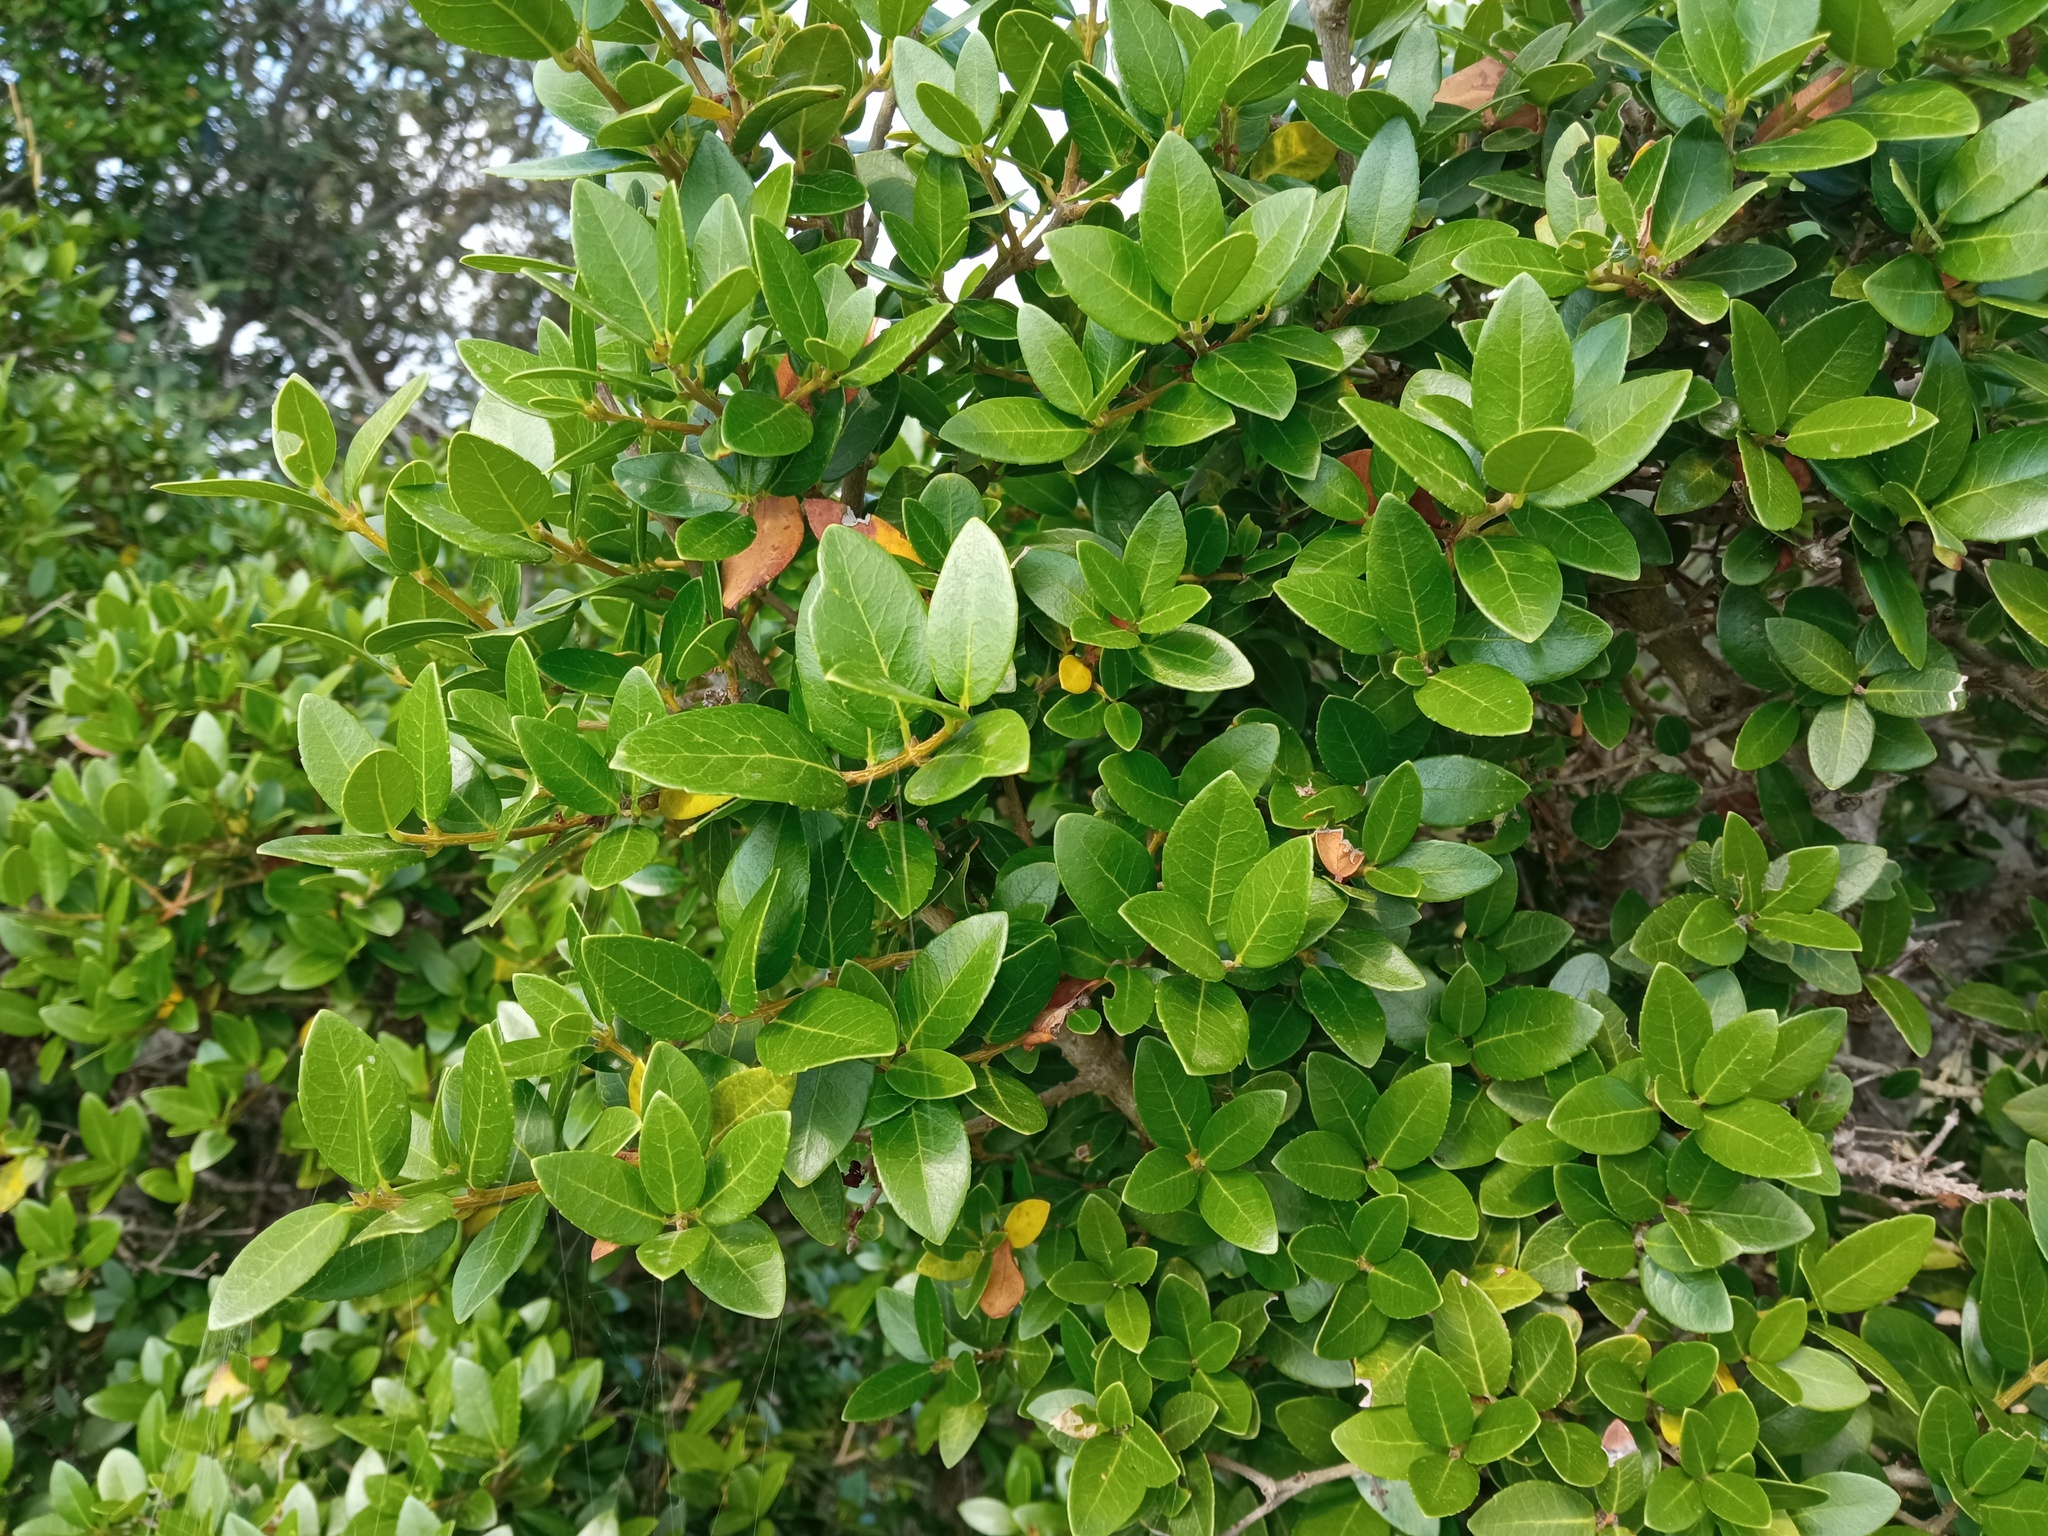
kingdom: Plantae
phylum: Tracheophyta
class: Magnoliopsida
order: Lamiales
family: Oleaceae
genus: Phillyrea
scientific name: Phillyrea latifolia
